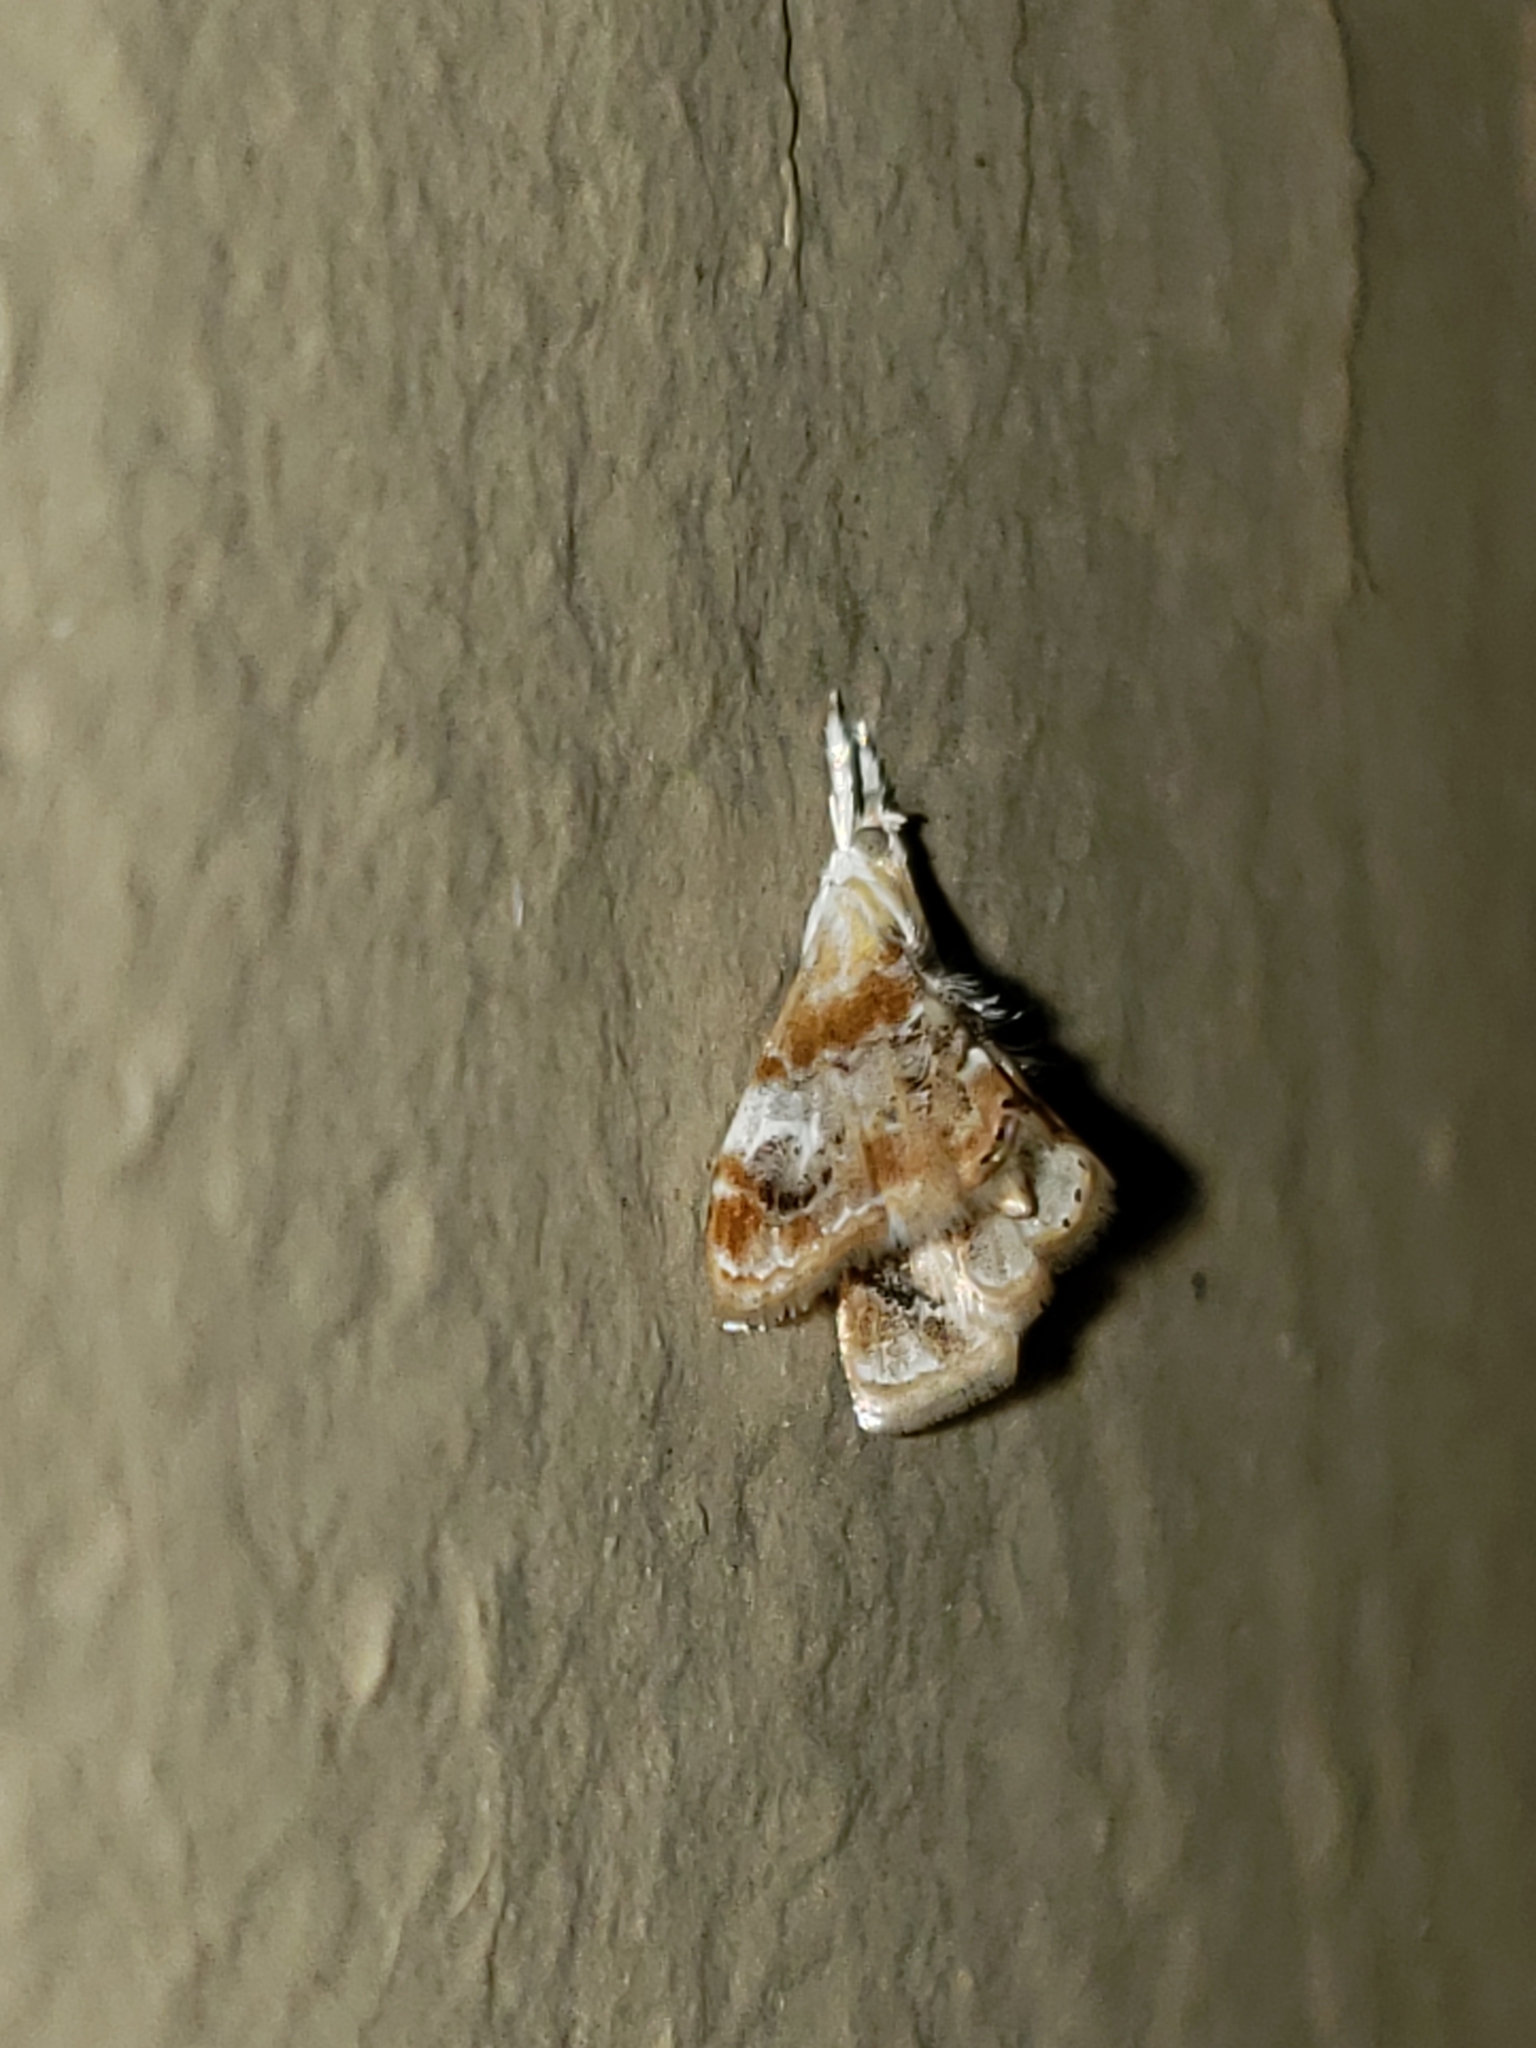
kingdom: Animalia
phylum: Arthropoda
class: Insecta
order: Lepidoptera
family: Crambidae
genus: Dicymolomia
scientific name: Dicymolomia julianalis
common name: Julia's dicymolomia moth
